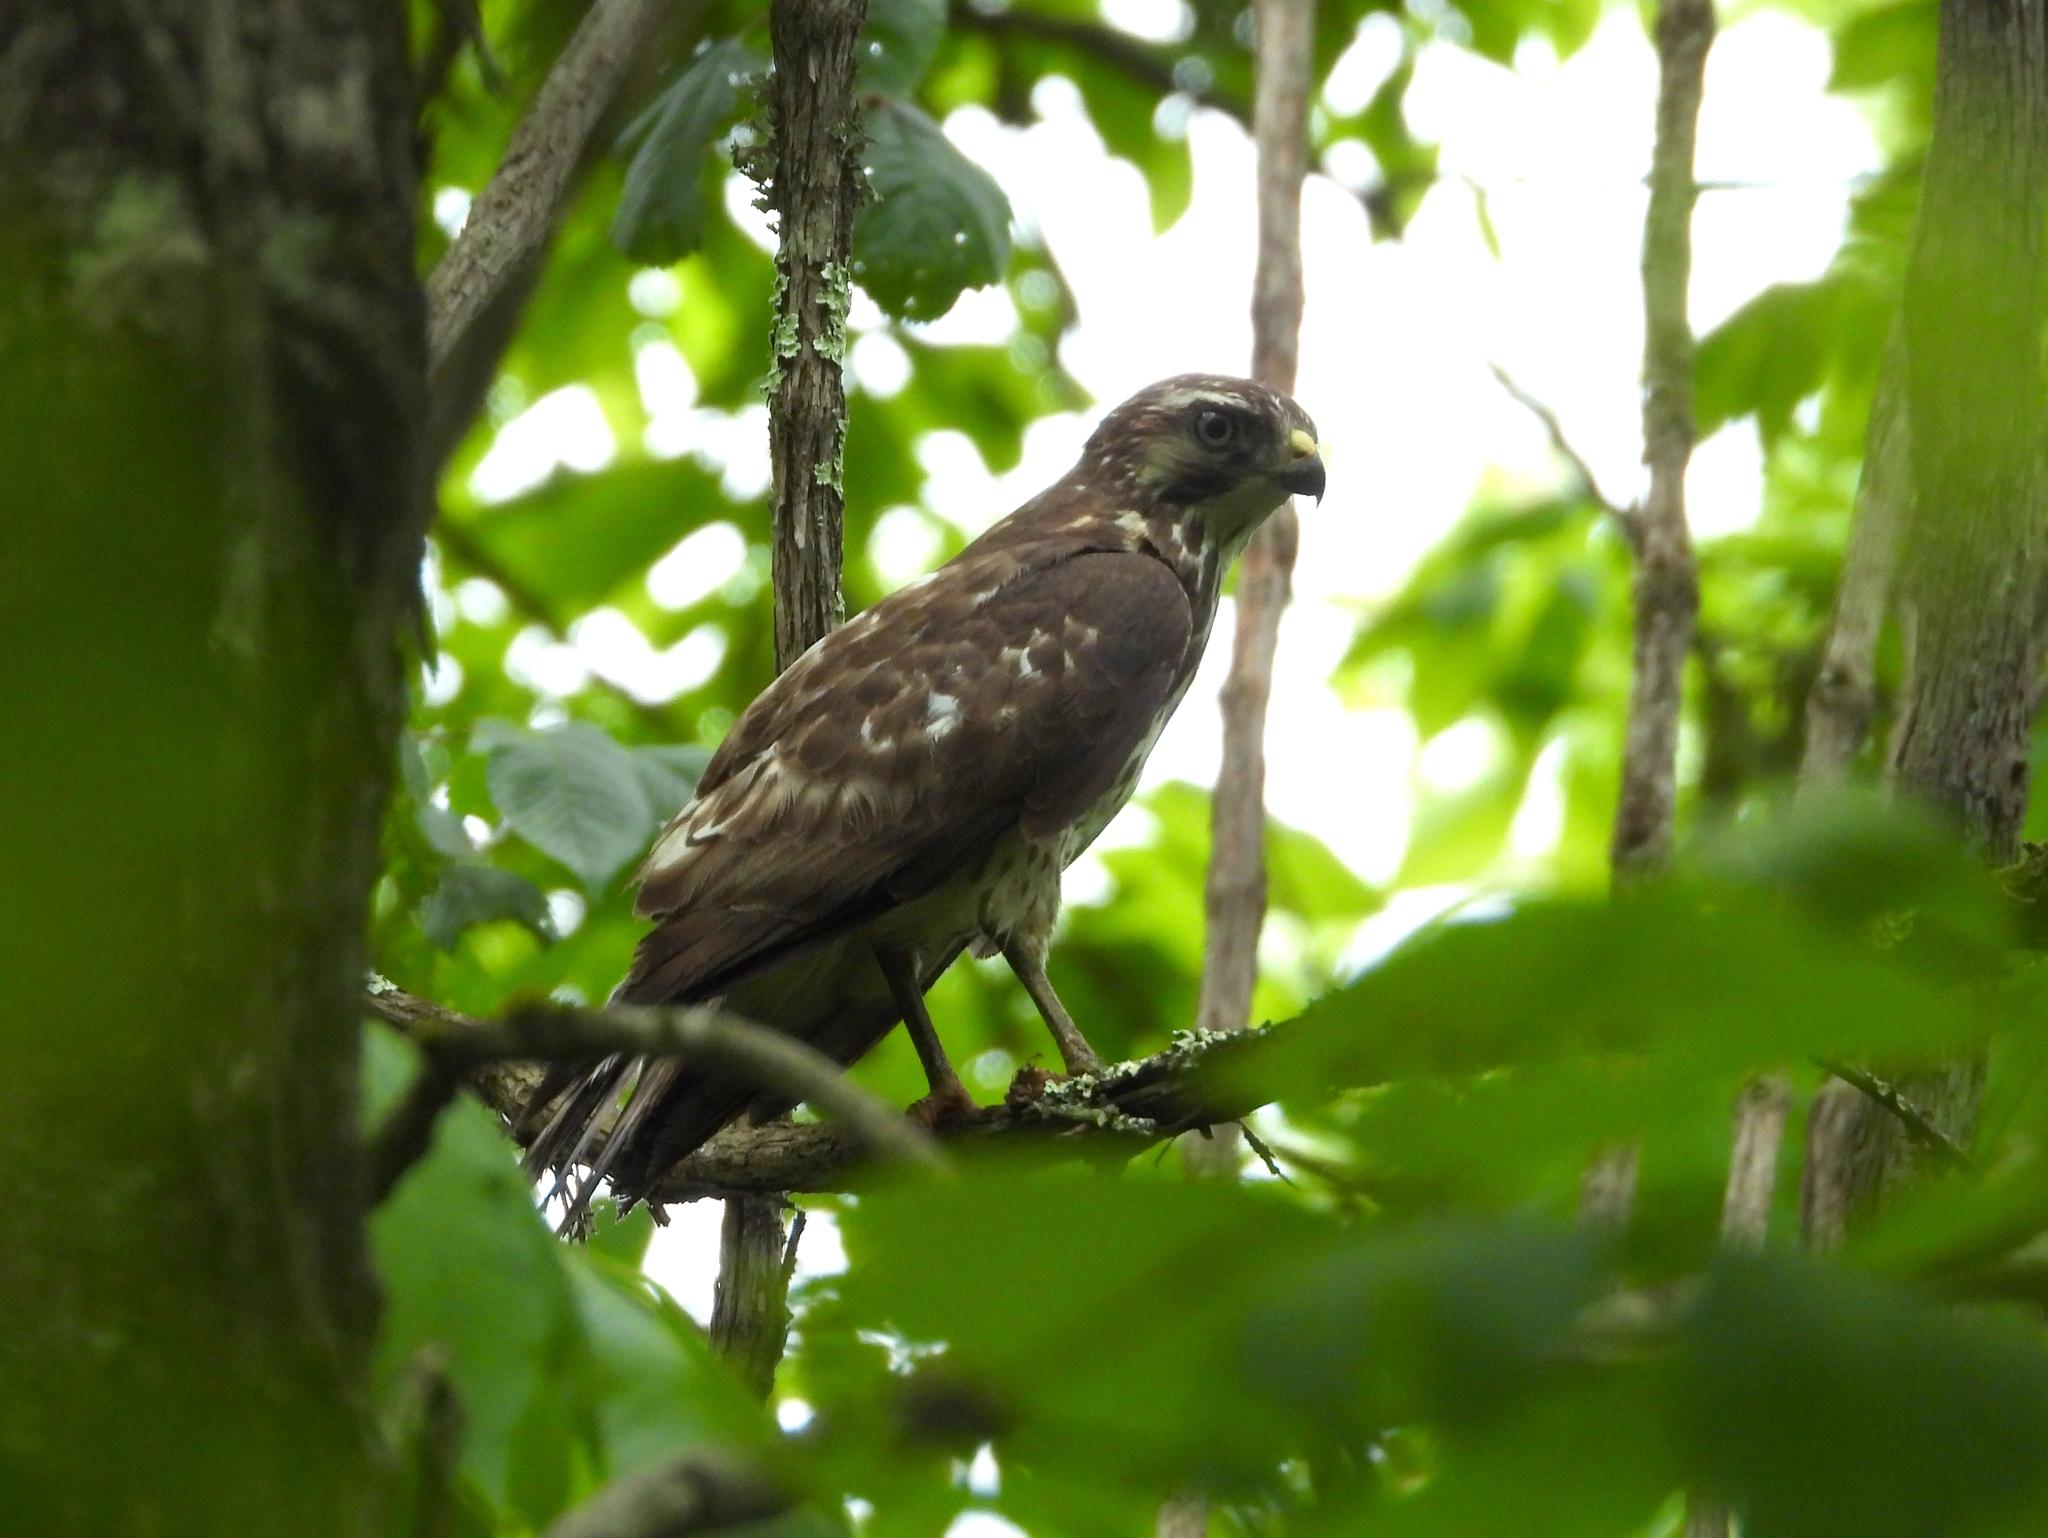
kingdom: Animalia
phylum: Chordata
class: Aves
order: Accipitriformes
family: Accipitridae
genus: Buteo
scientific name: Buteo platypterus
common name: Broad-winged hawk
